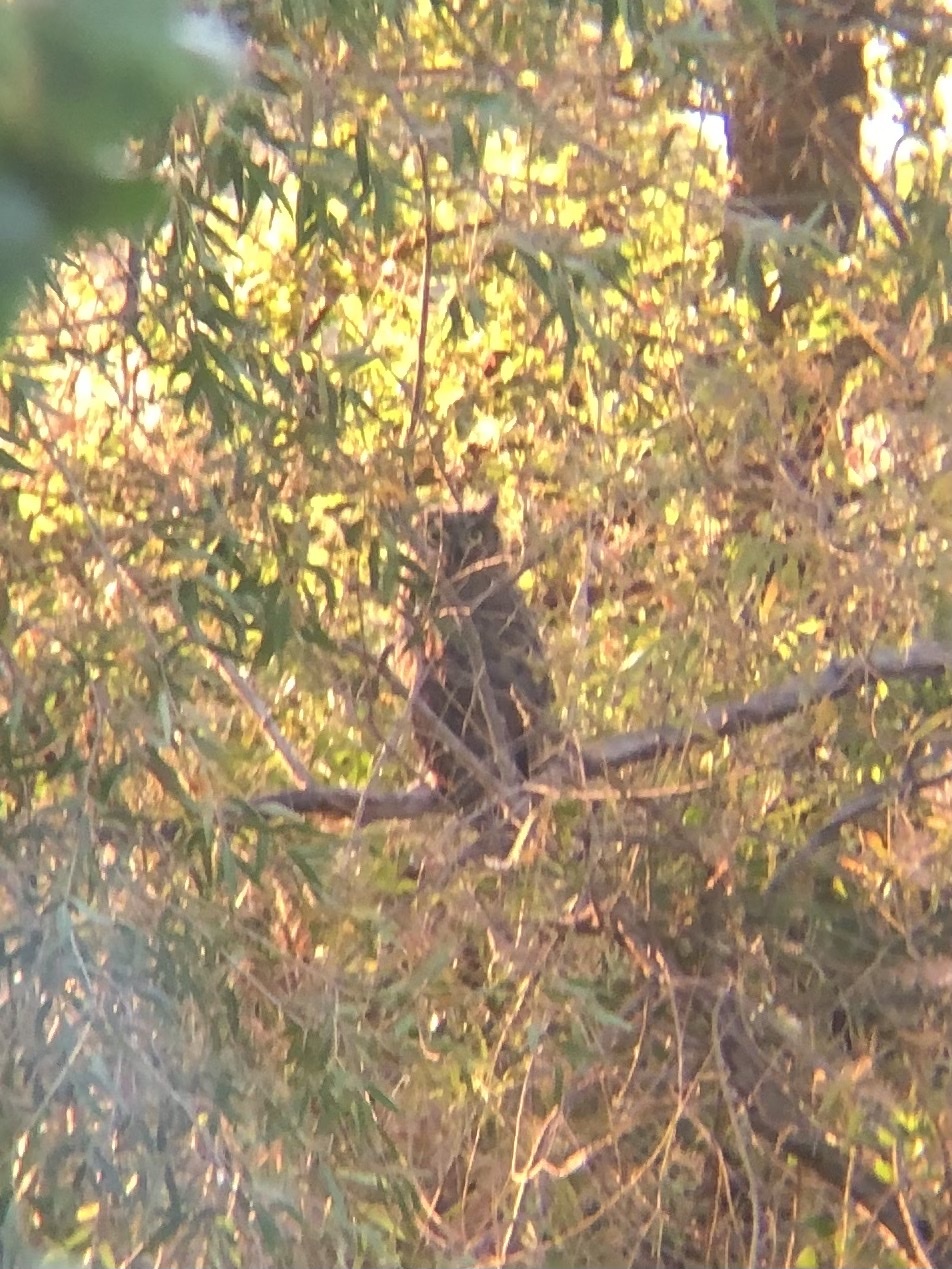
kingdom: Animalia
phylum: Chordata
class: Aves
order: Strigiformes
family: Strigidae
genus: Bubo
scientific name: Bubo virginianus
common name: Great horned owl
